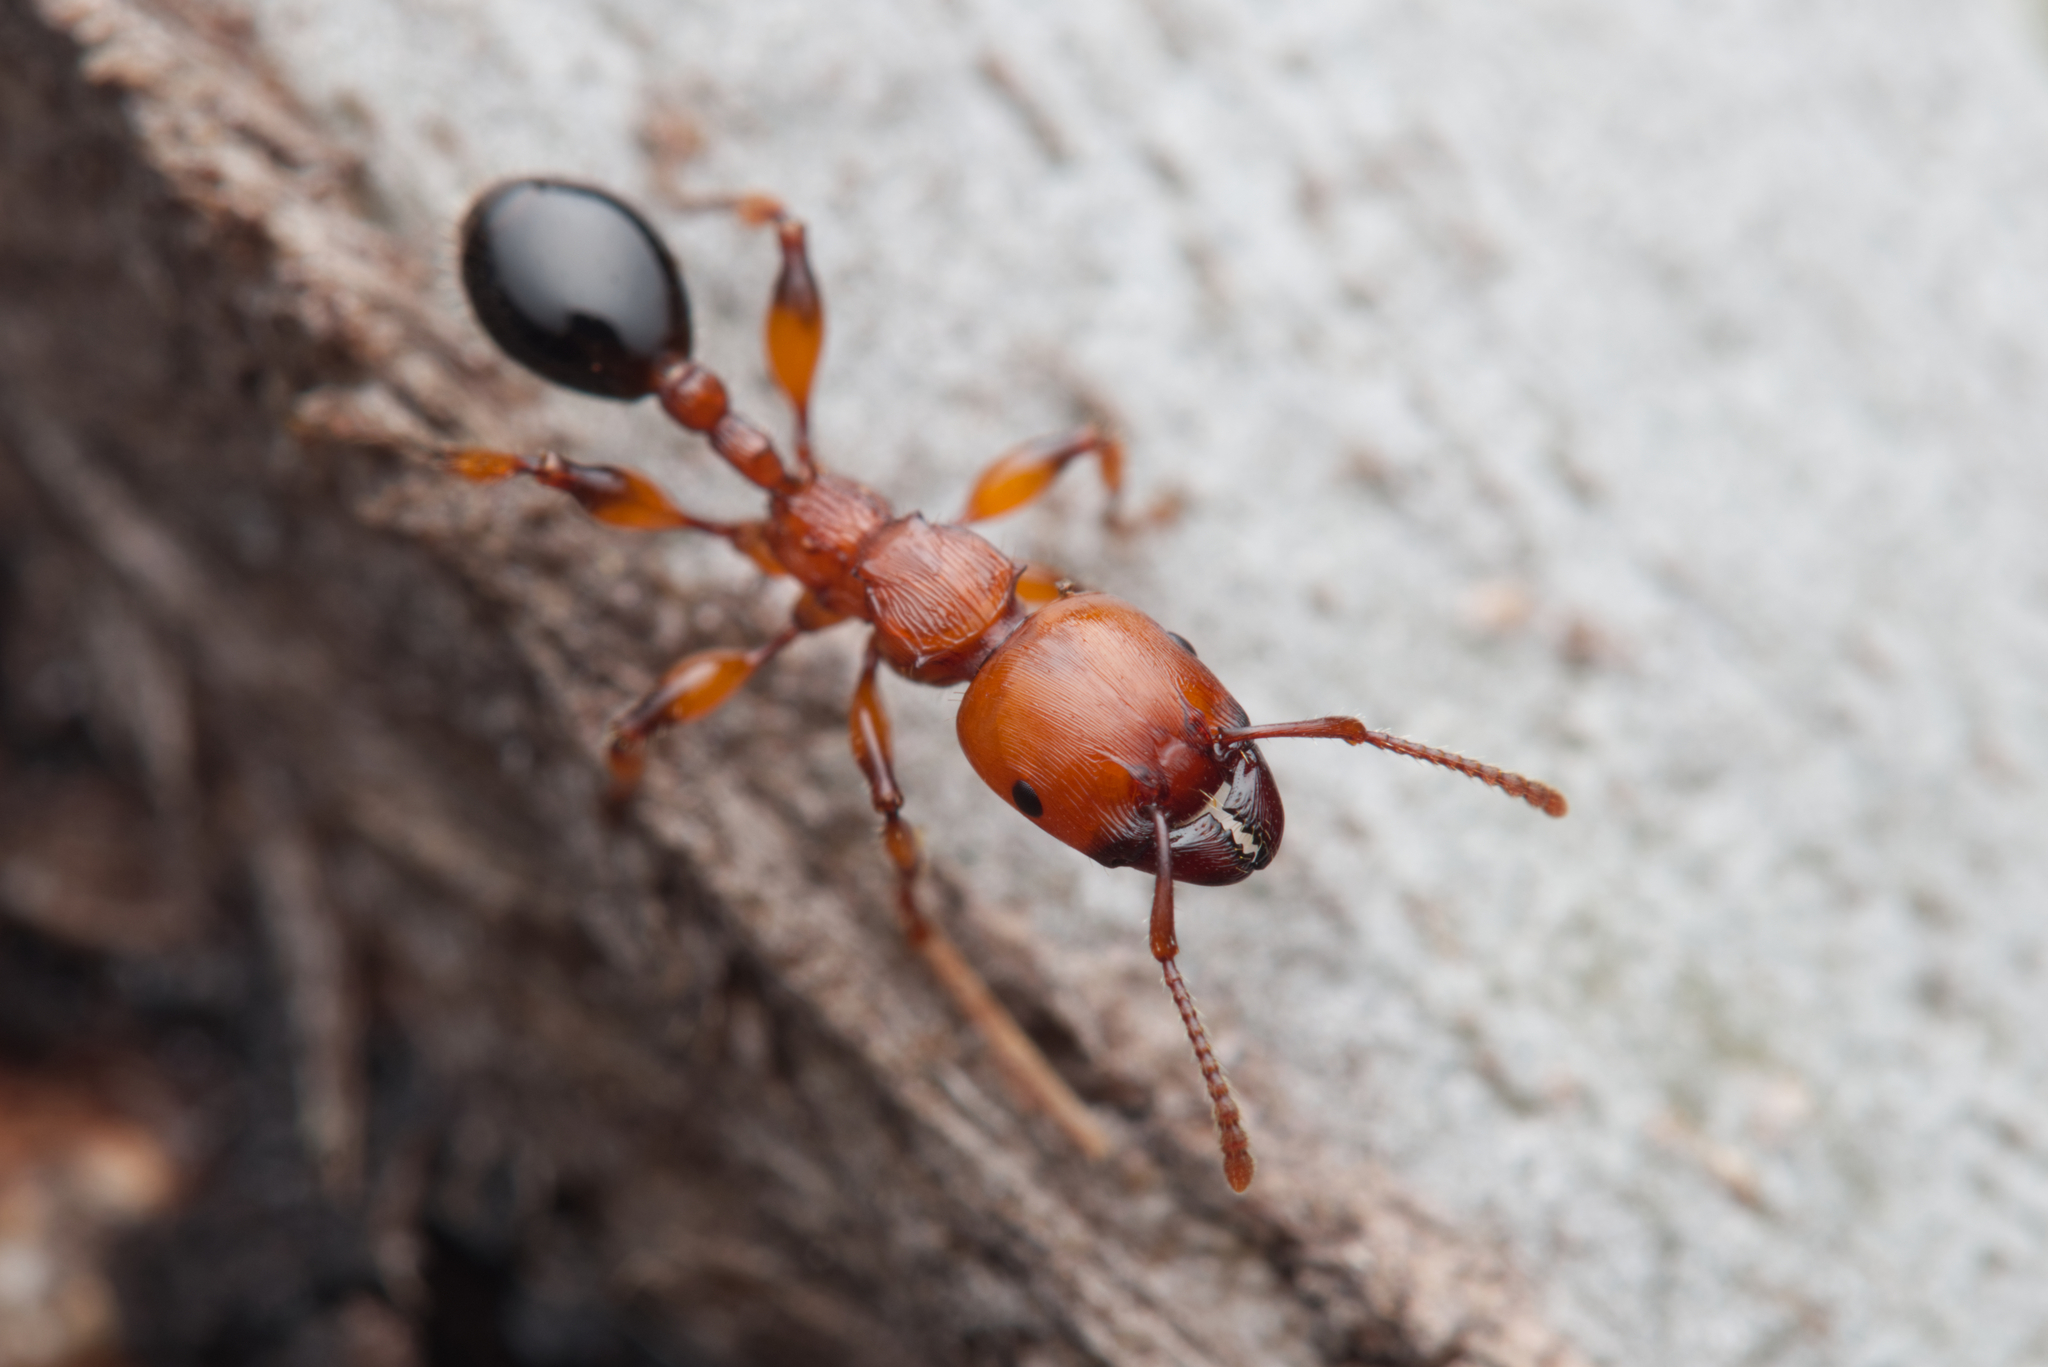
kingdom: Animalia
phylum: Arthropoda
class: Insecta
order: Hymenoptera
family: Formicidae
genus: Podomyrma
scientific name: Podomyrma gratiosa
